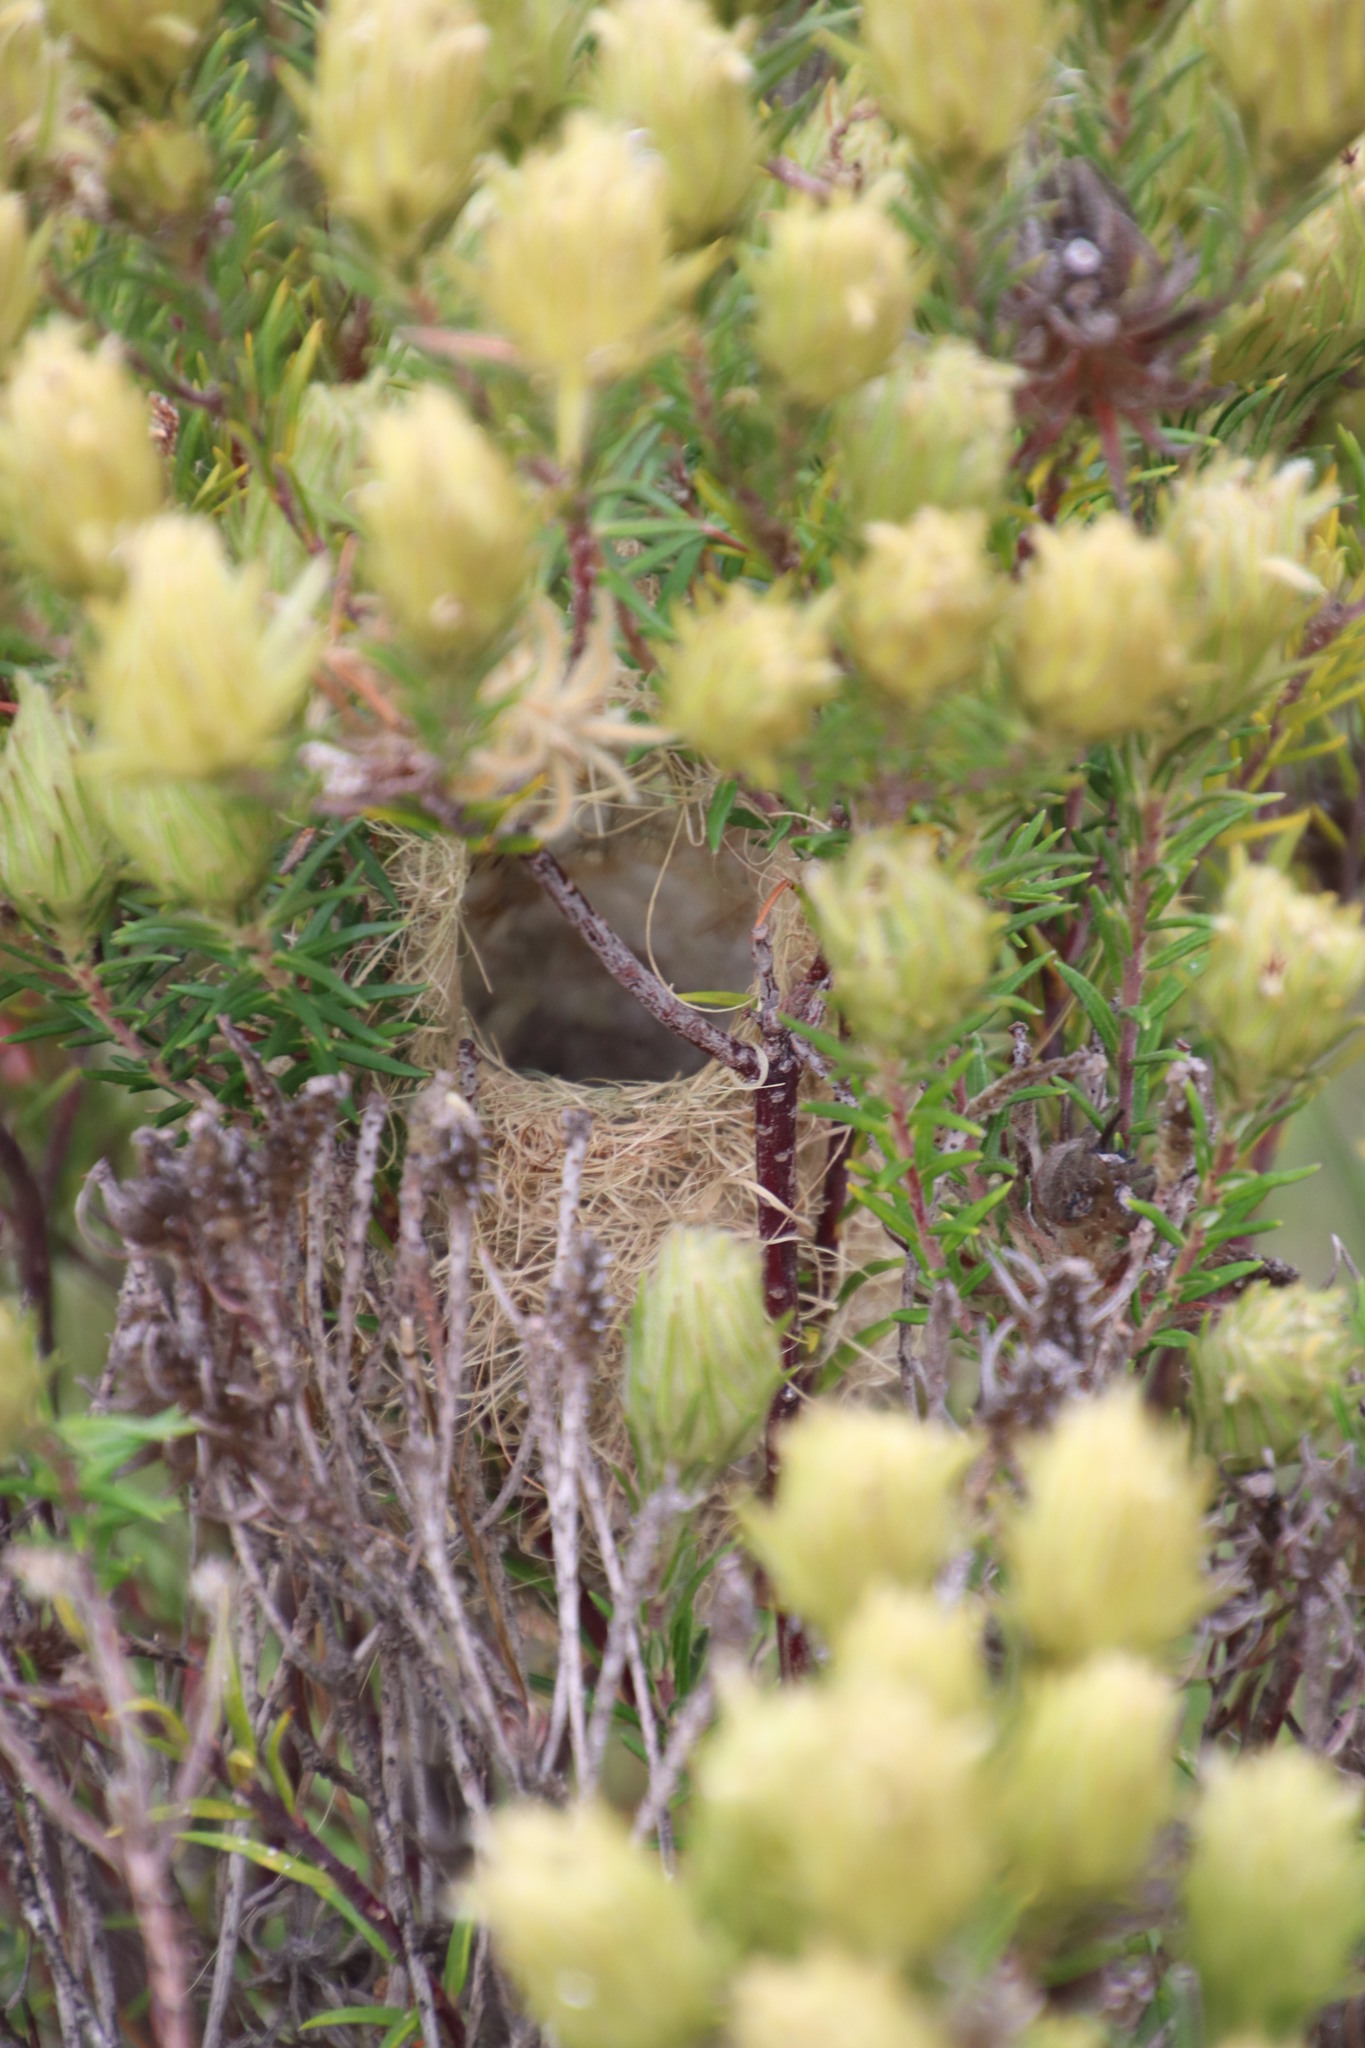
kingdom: Animalia
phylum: Chordata
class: Aves
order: Passeriformes
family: Cisticolidae
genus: Prinia
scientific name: Prinia maculosa
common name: Karoo prinia
